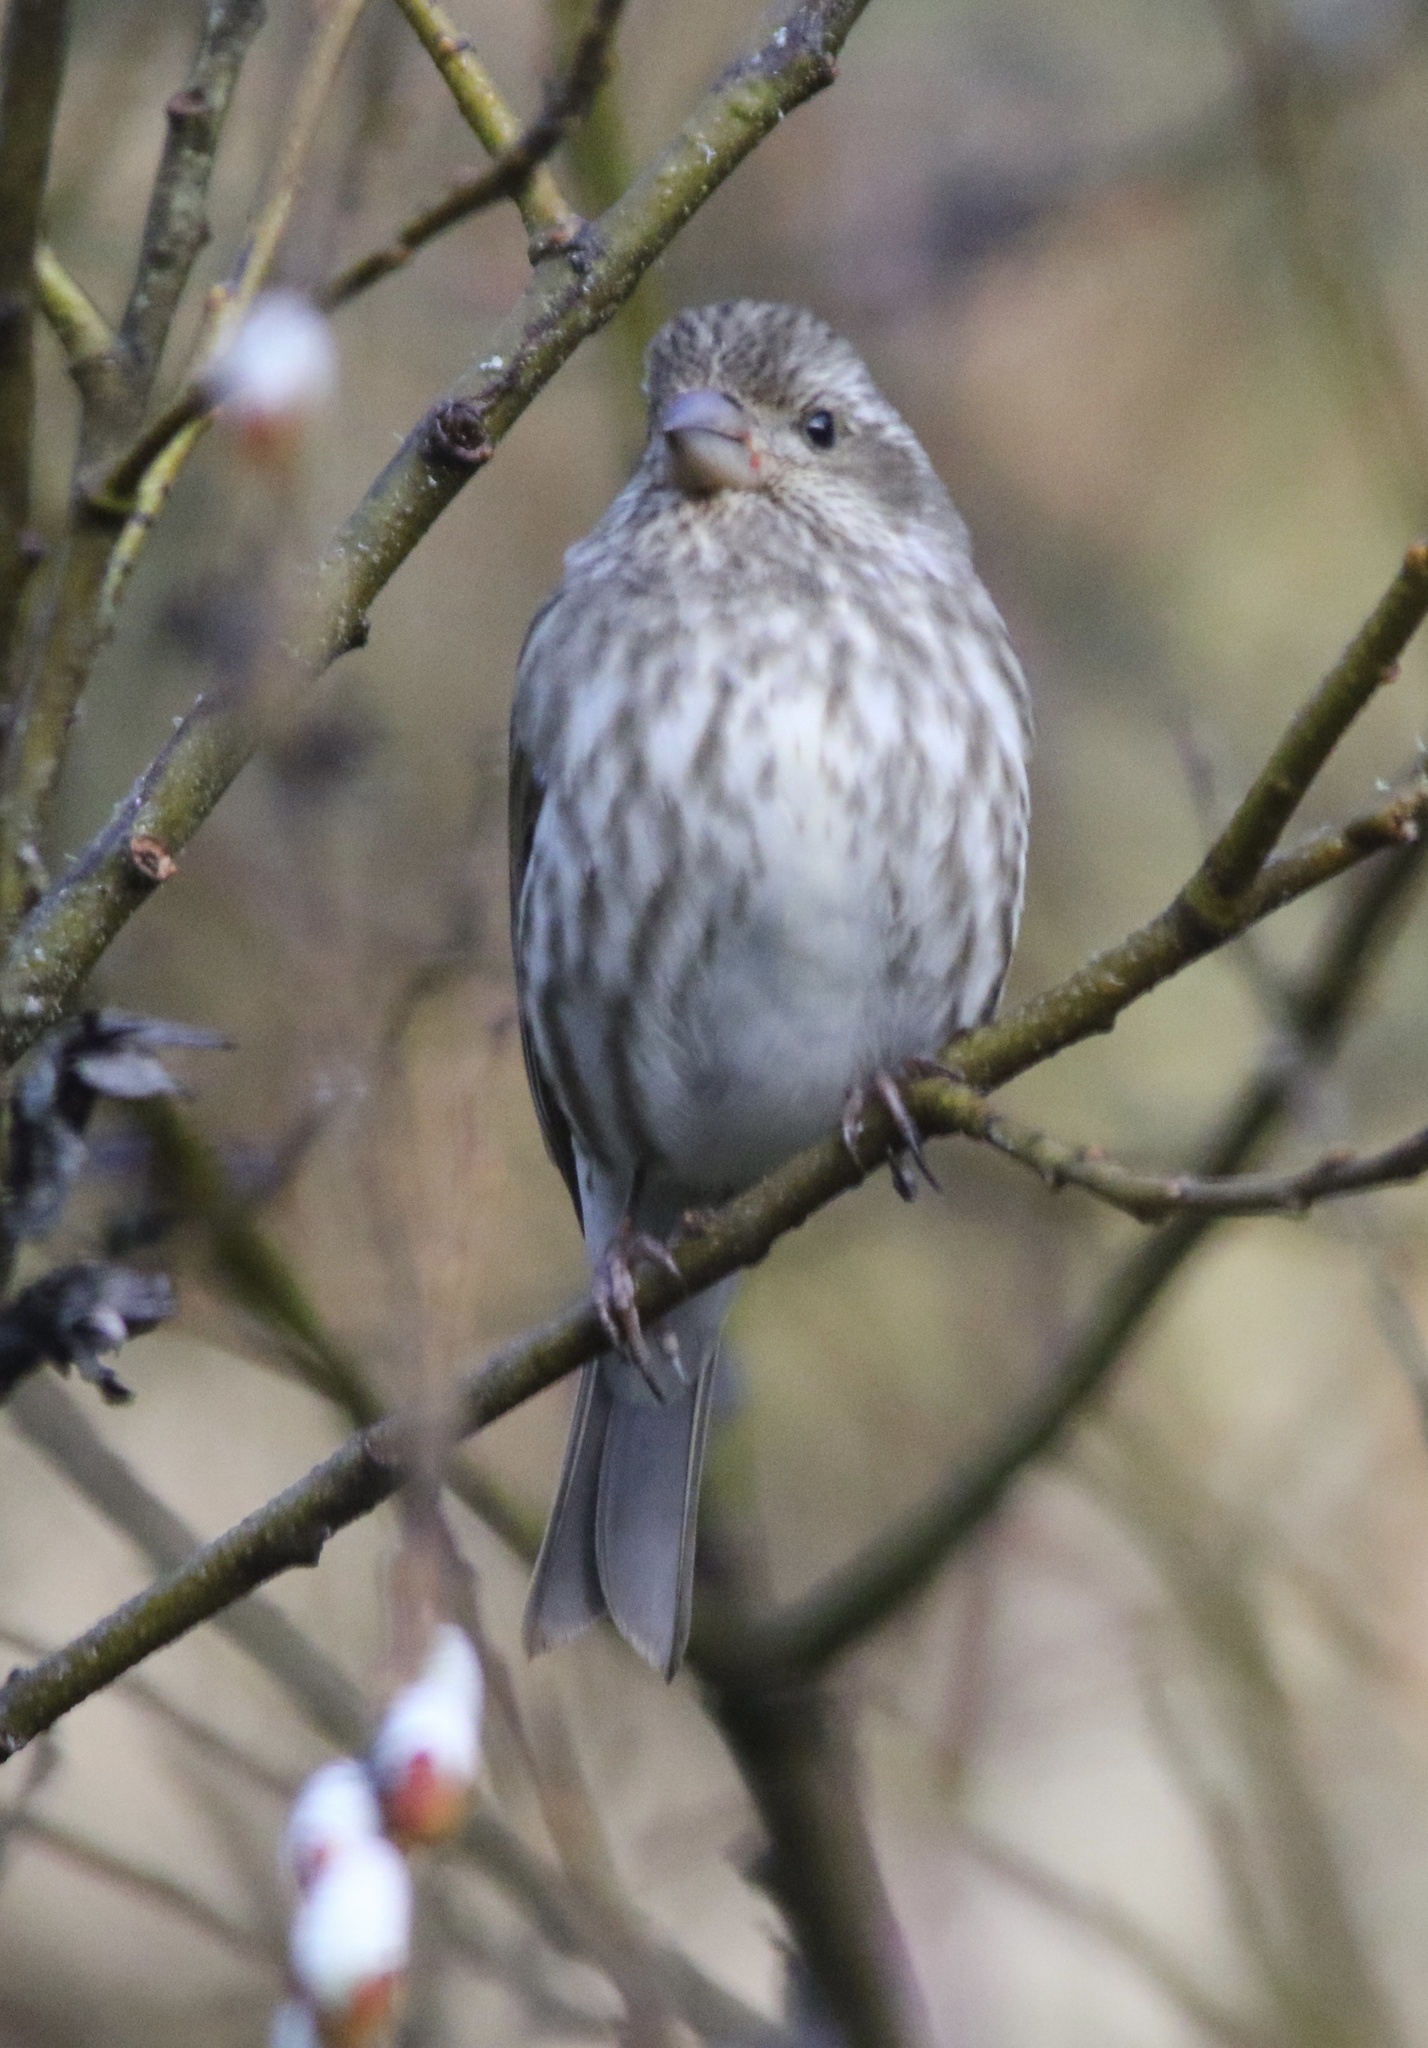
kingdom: Animalia
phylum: Chordata
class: Aves
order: Passeriformes
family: Fringillidae
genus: Haemorhous
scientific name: Haemorhous purpureus
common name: Purple finch
